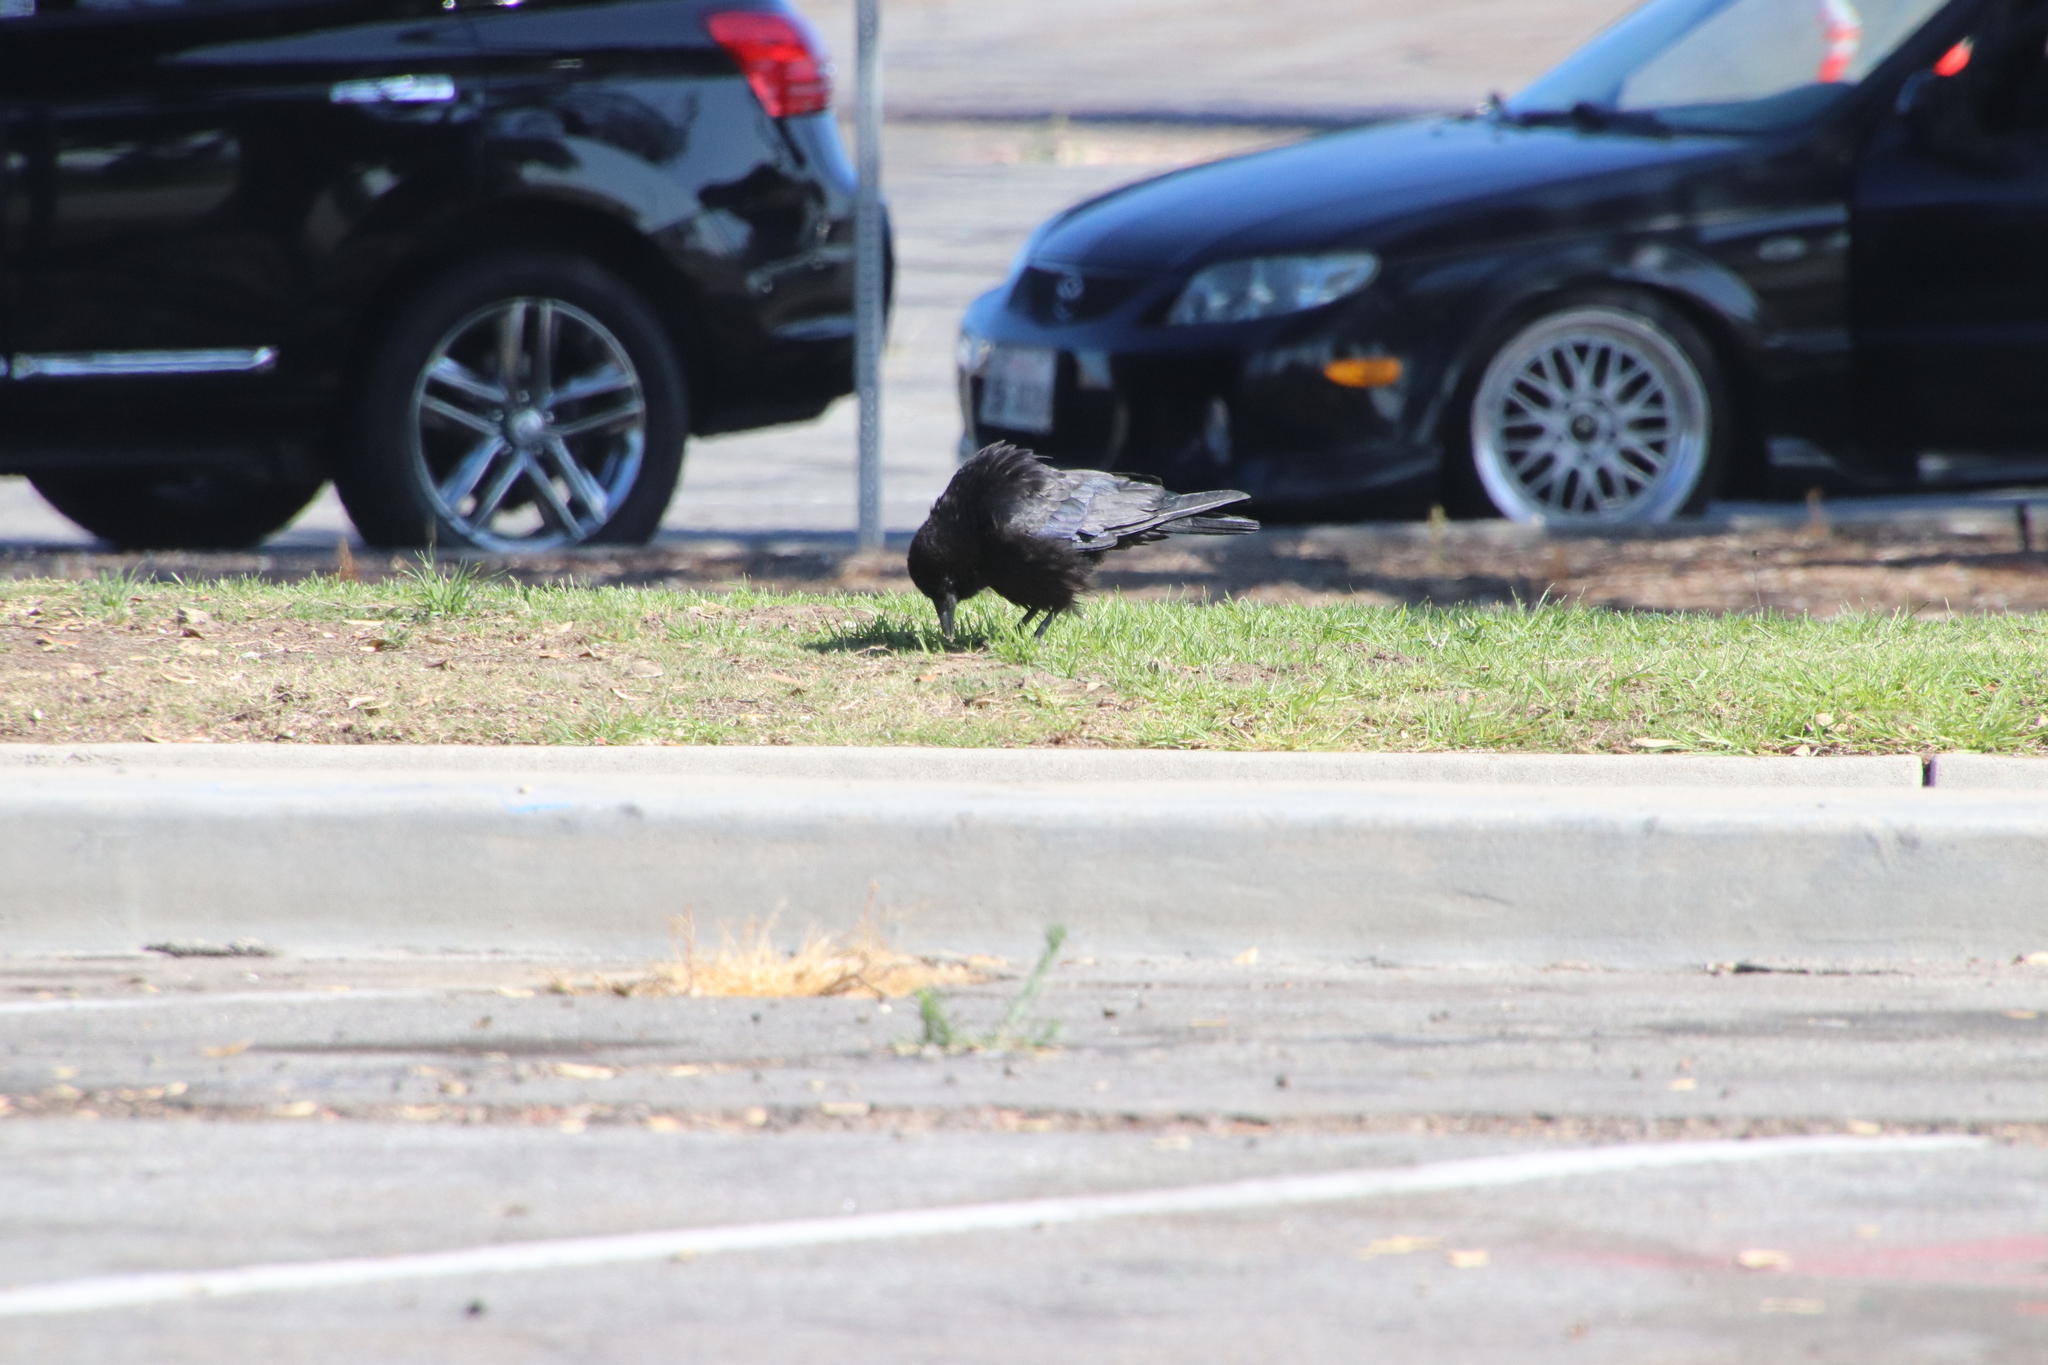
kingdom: Animalia
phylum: Chordata
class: Aves
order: Passeriformes
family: Corvidae
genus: Corvus
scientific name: Corvus brachyrhynchos
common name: American crow
